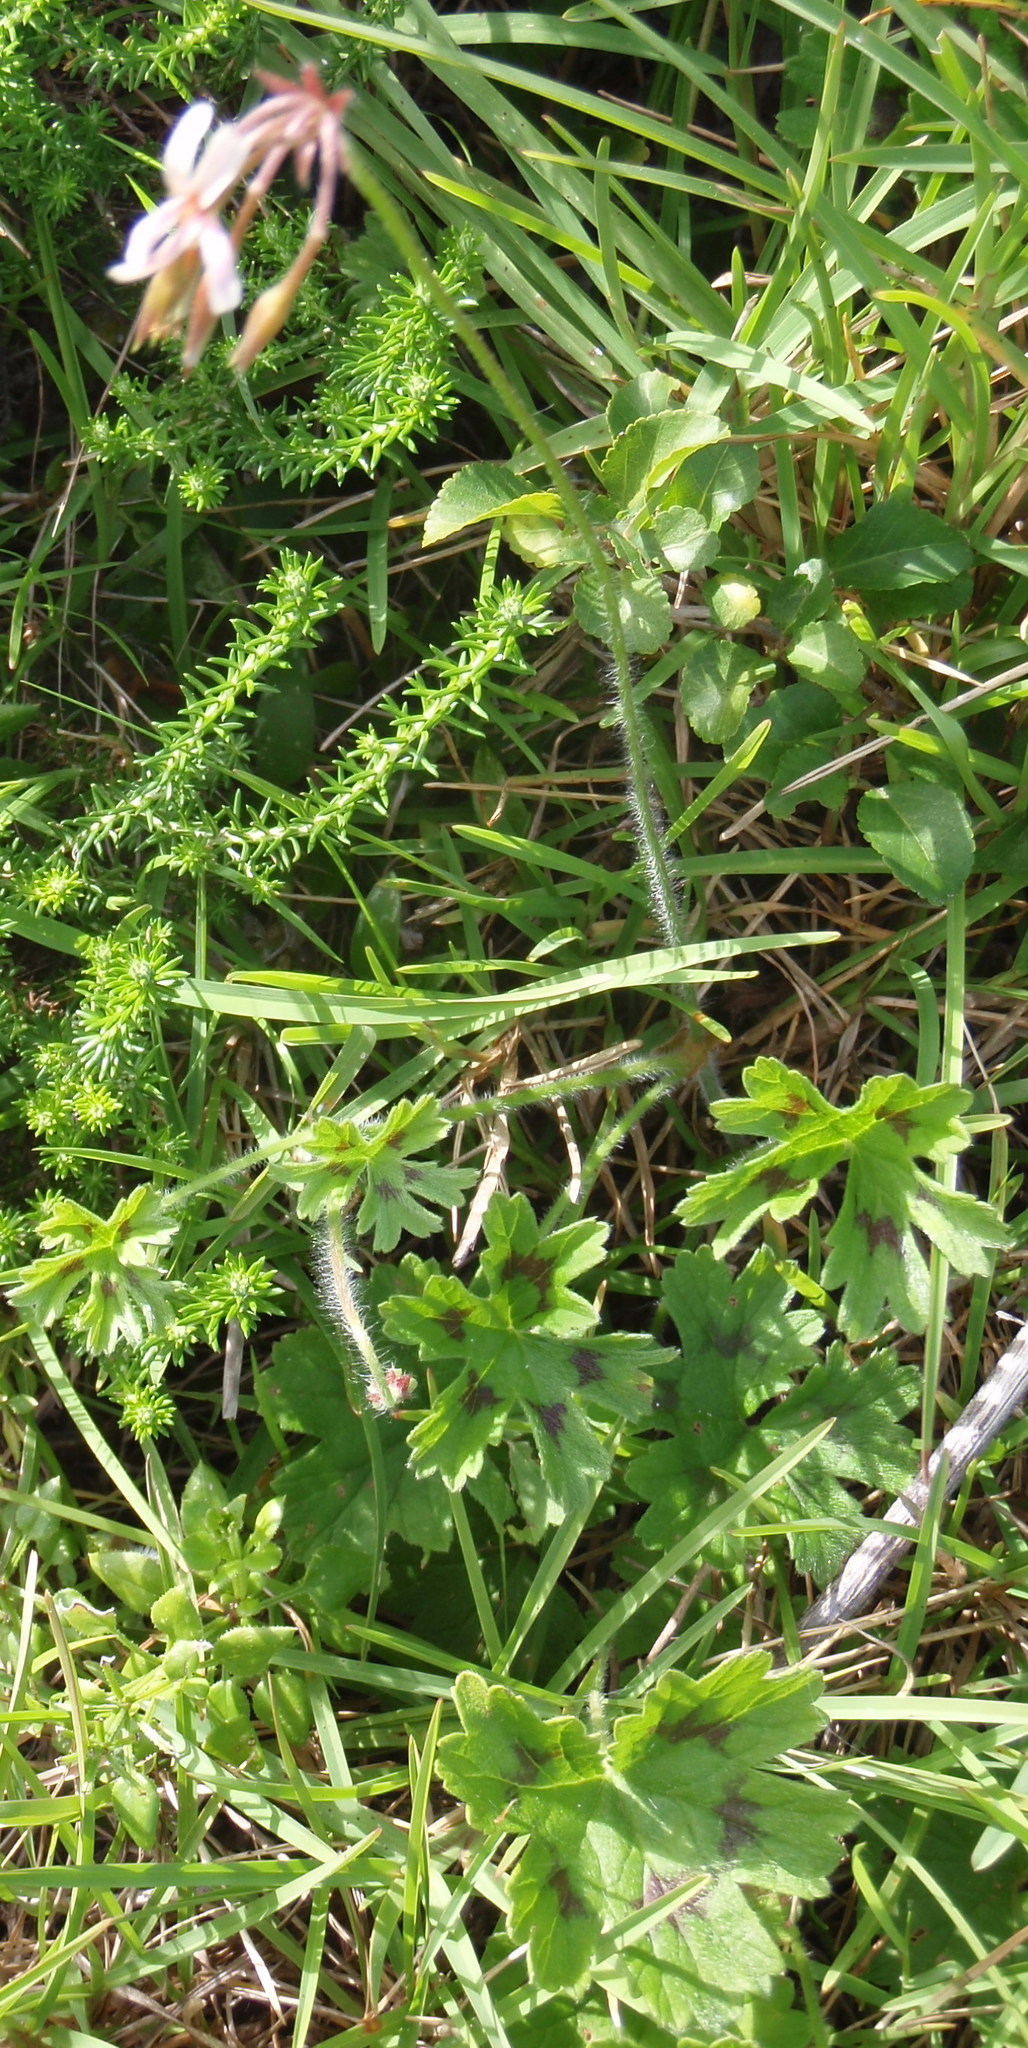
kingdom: Plantae
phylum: Tracheophyta
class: Magnoliopsida
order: Geraniales
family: Geraniaceae
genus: Pelargonium
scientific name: Pelargonium alchemilloides
